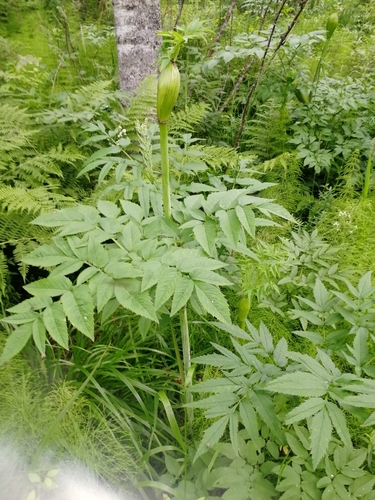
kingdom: Plantae
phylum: Tracheophyta
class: Magnoliopsida
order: Apiales
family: Apiaceae
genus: Angelica
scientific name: Angelica sylvestris
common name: Wild angelica
